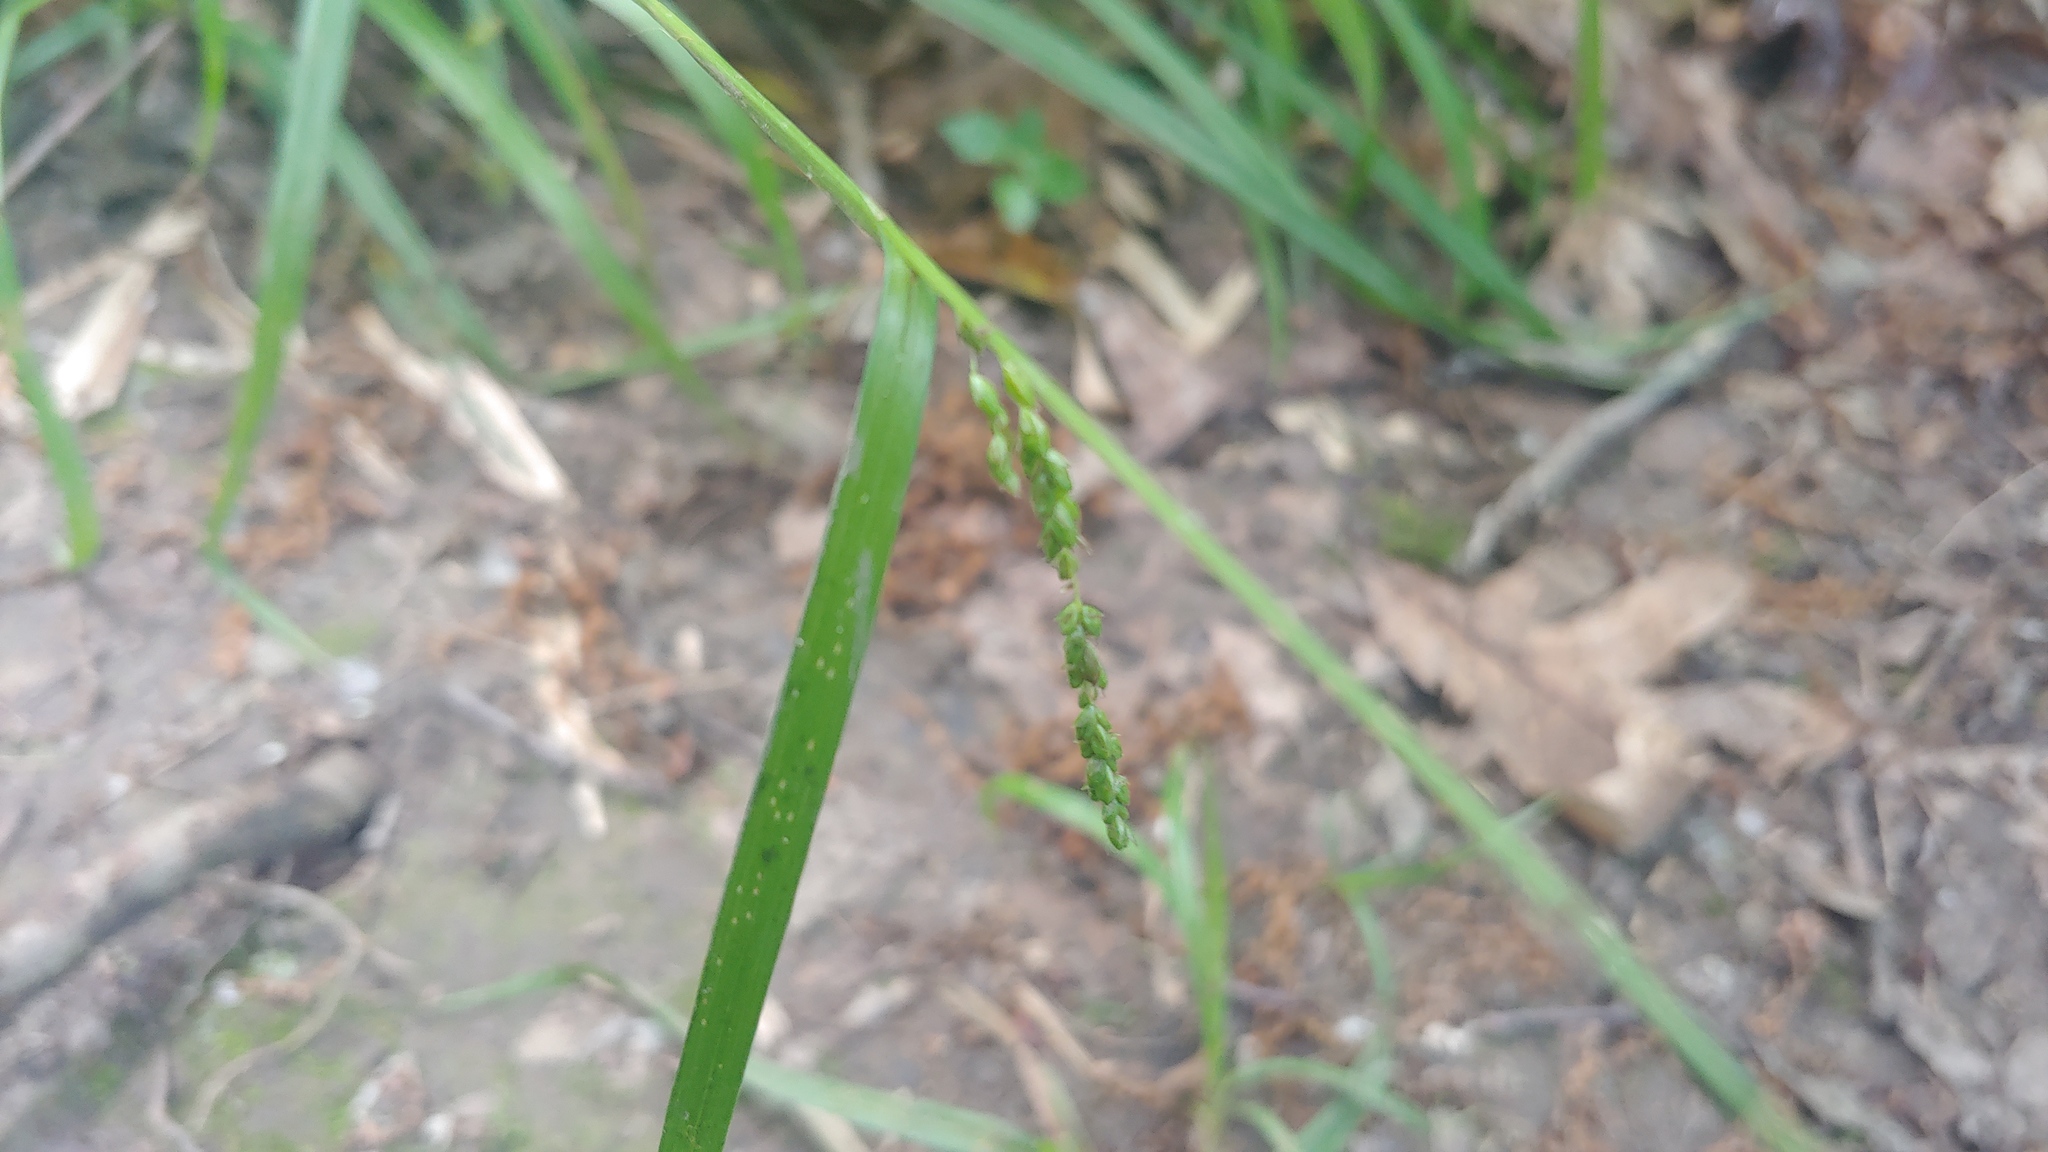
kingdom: Plantae
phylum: Tracheophyta
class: Liliopsida
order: Poales
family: Cyperaceae
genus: Carex
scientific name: Carex gracillima
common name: Graceful sedge
